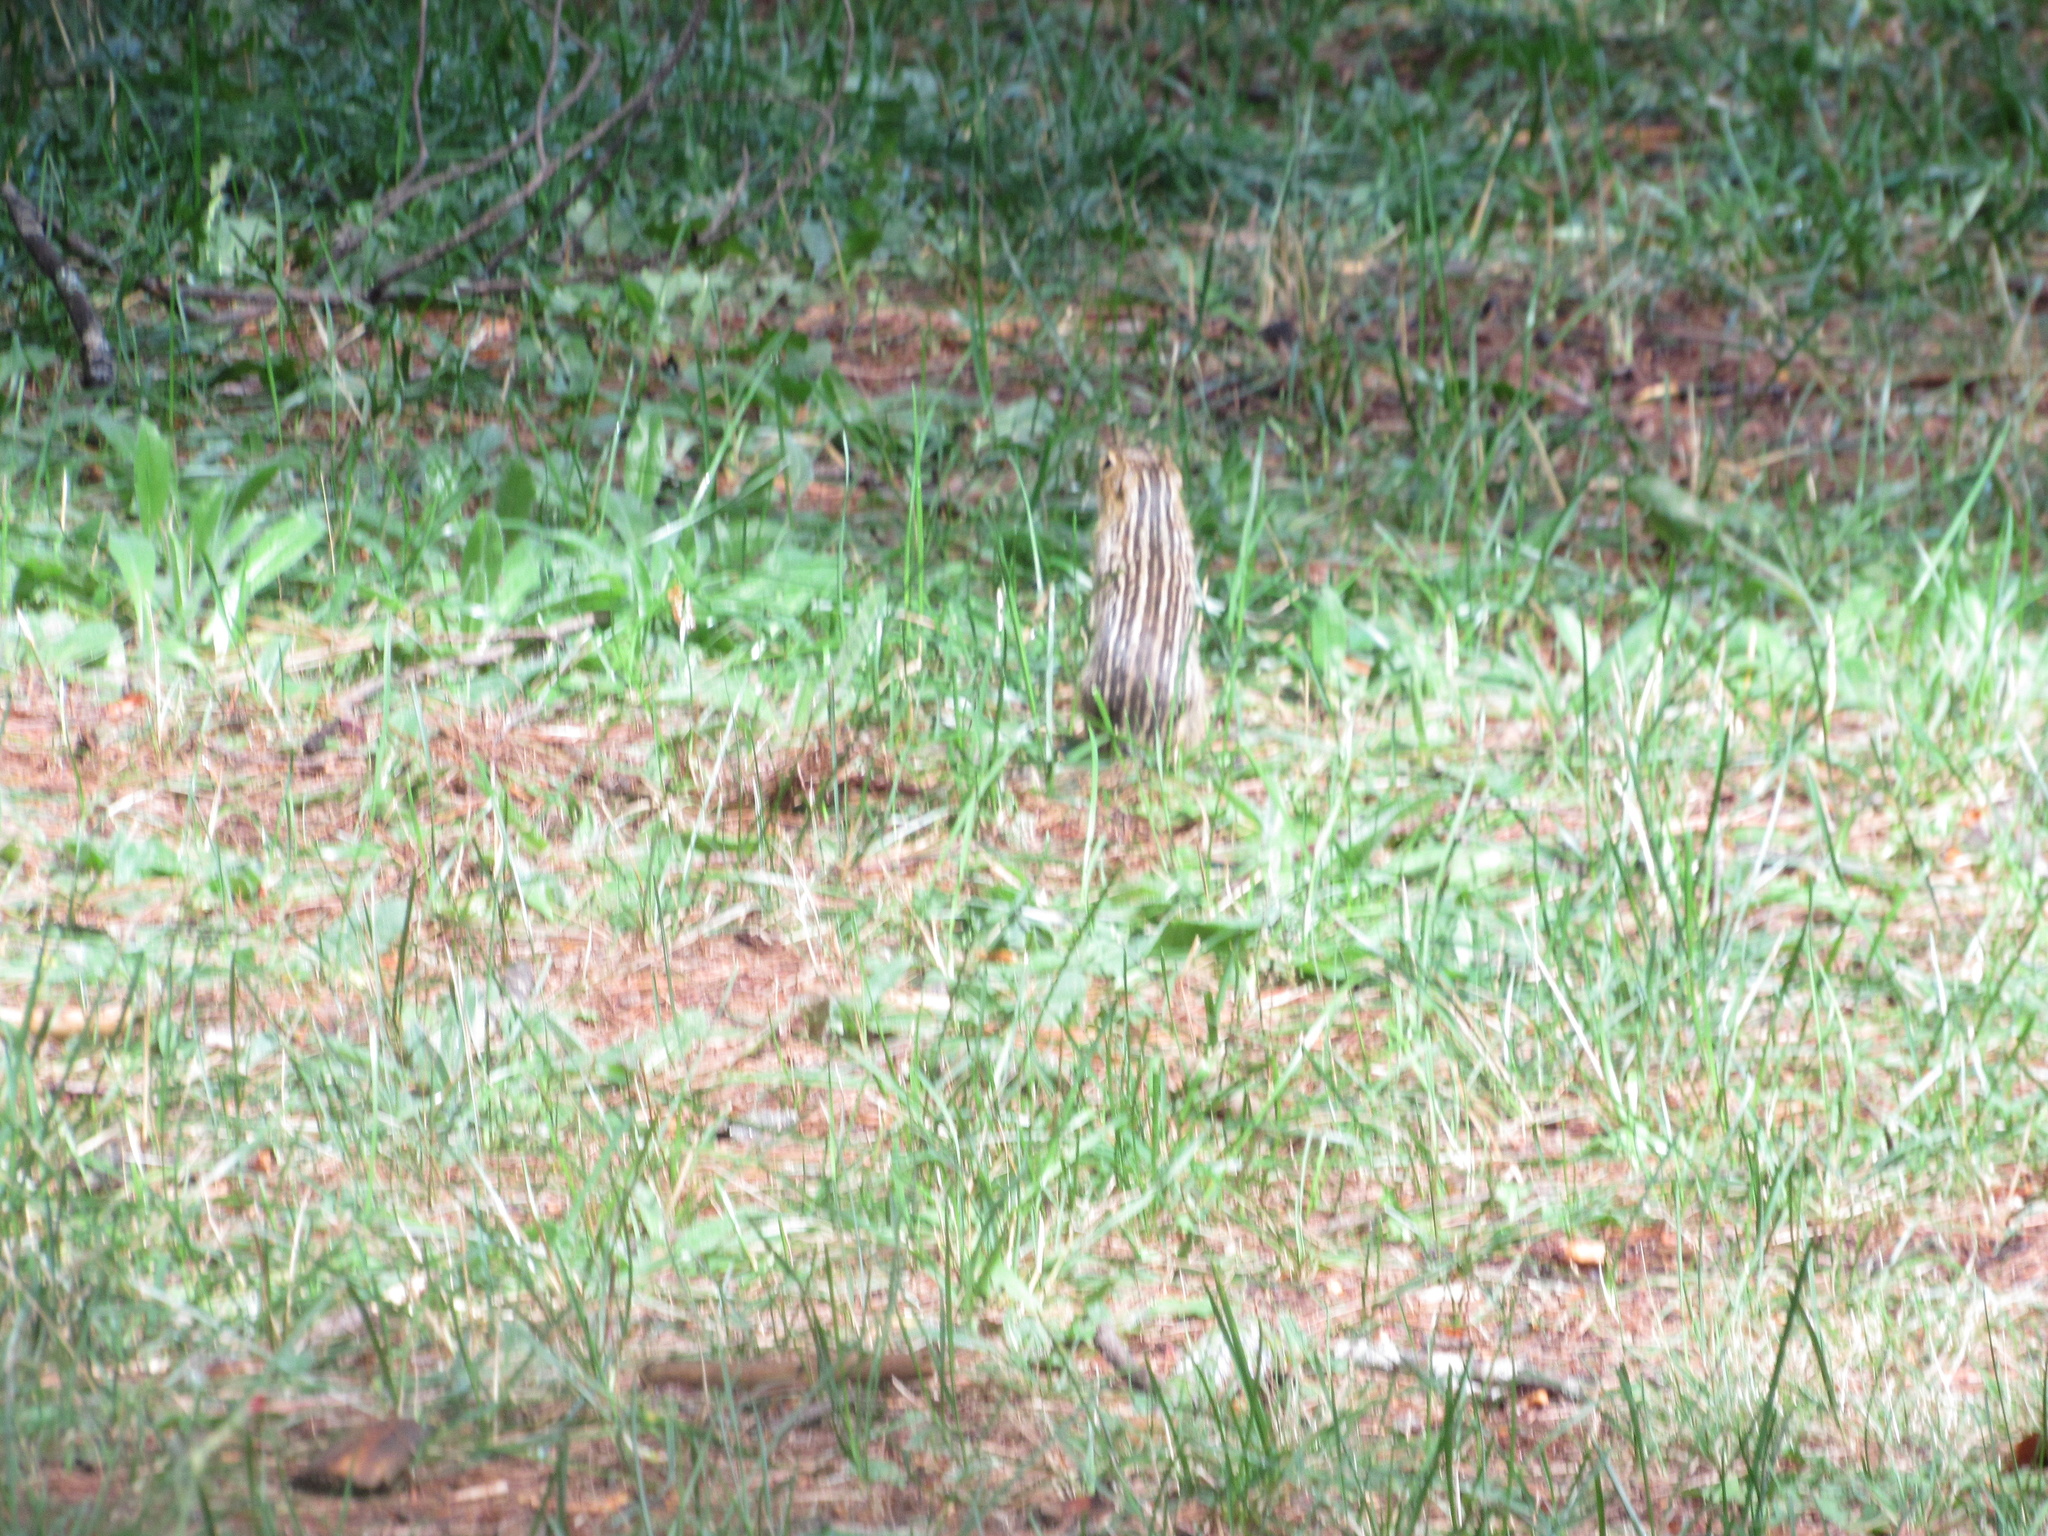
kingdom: Animalia
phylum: Chordata
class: Mammalia
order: Rodentia
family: Sciuridae
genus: Ictidomys
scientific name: Ictidomys tridecemlineatus
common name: Thirteen-lined ground squirrel
